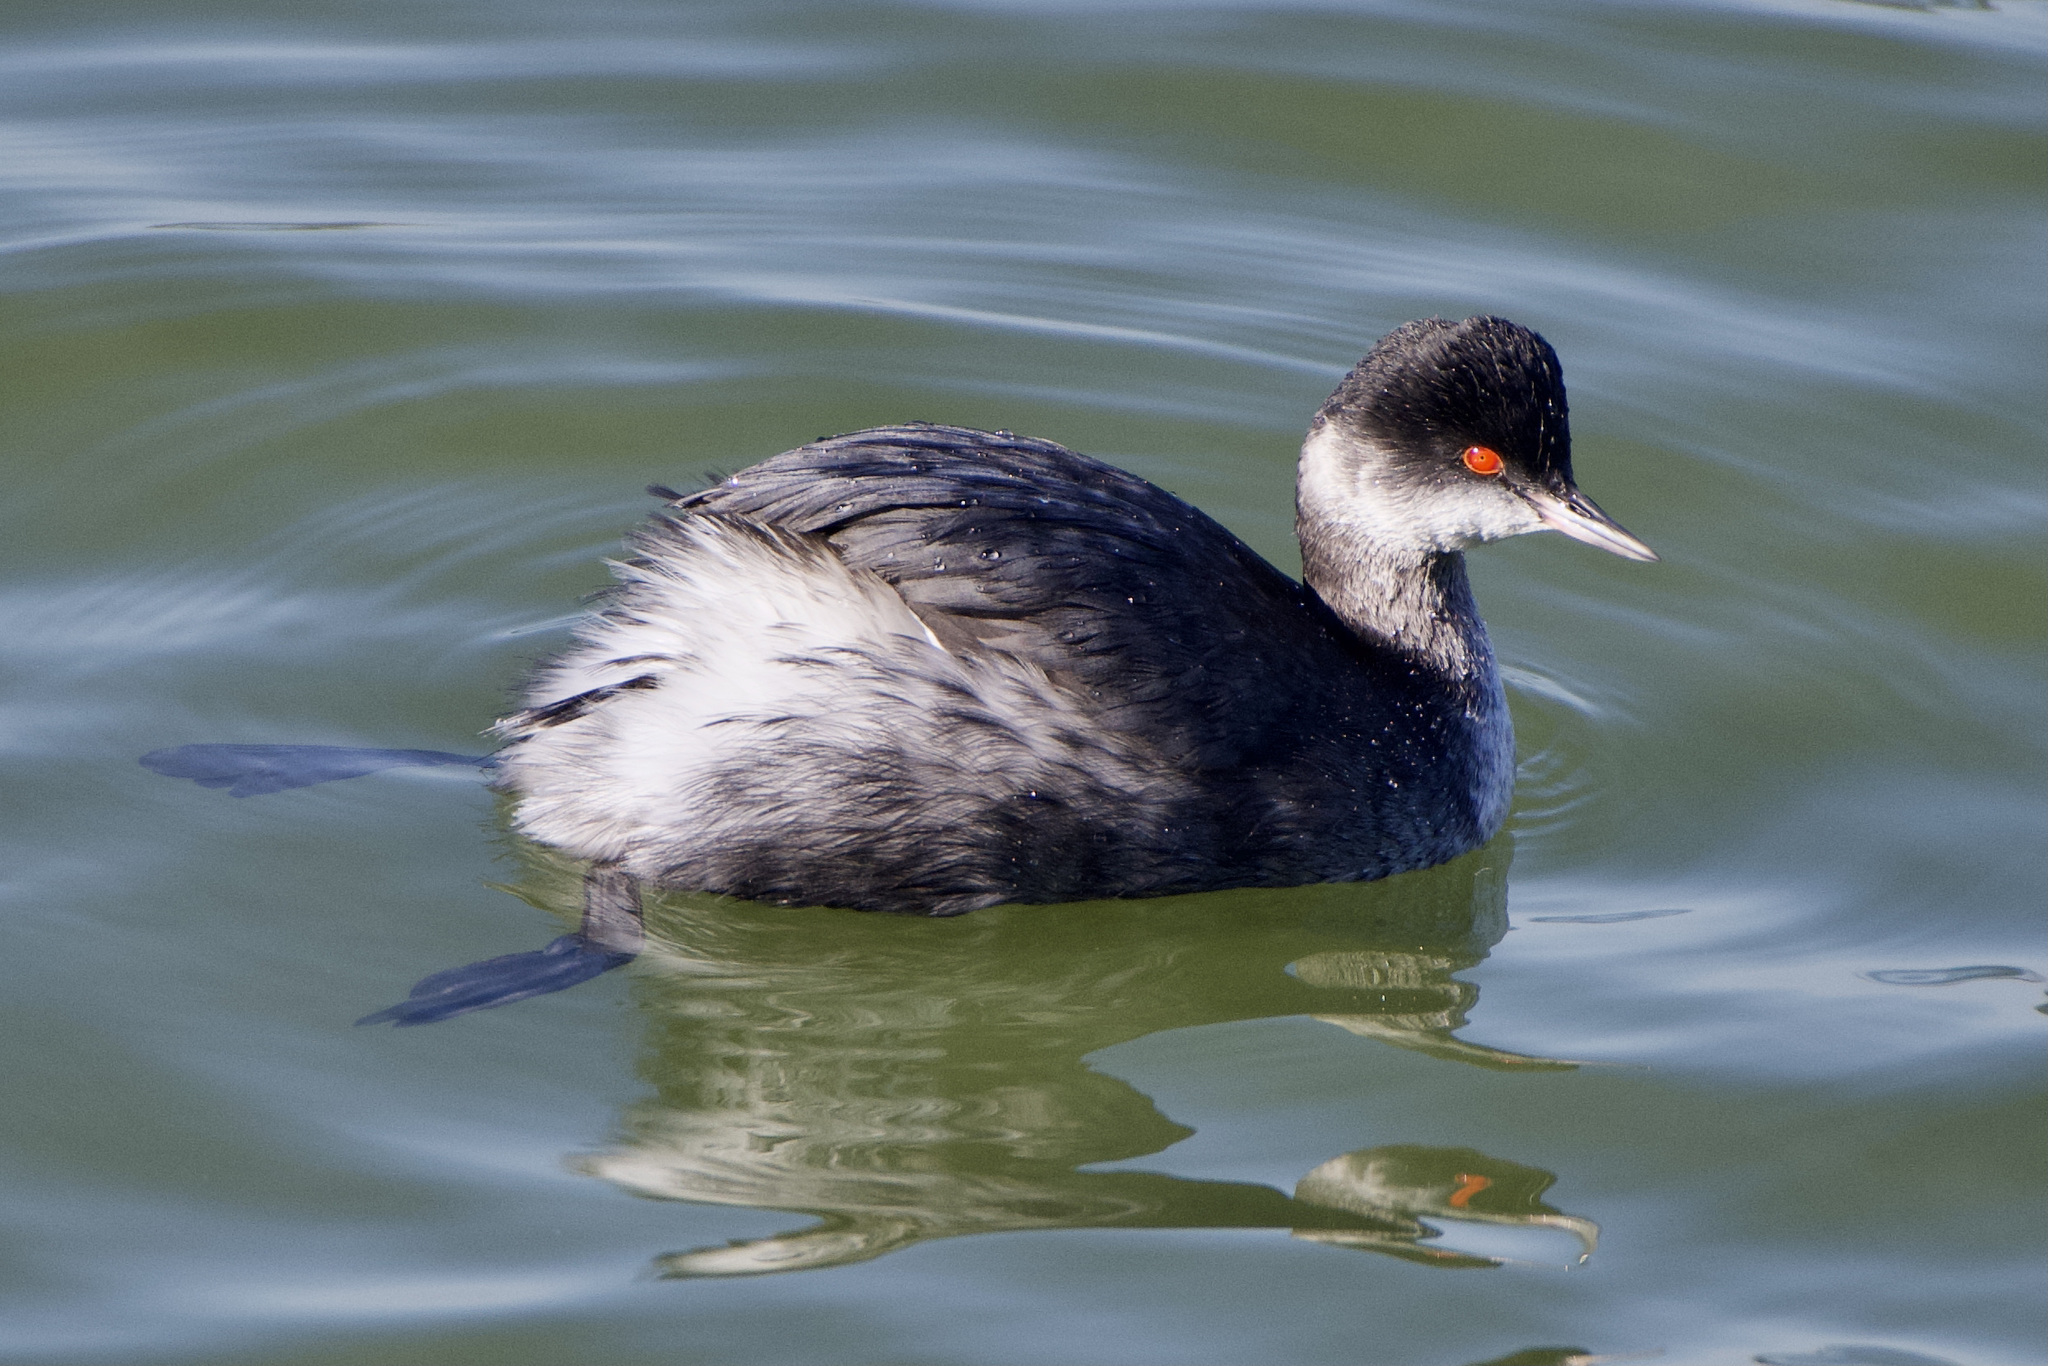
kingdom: Animalia
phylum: Chordata
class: Aves
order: Podicipediformes
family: Podicipedidae
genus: Podiceps
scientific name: Podiceps nigricollis
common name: Black-necked grebe
